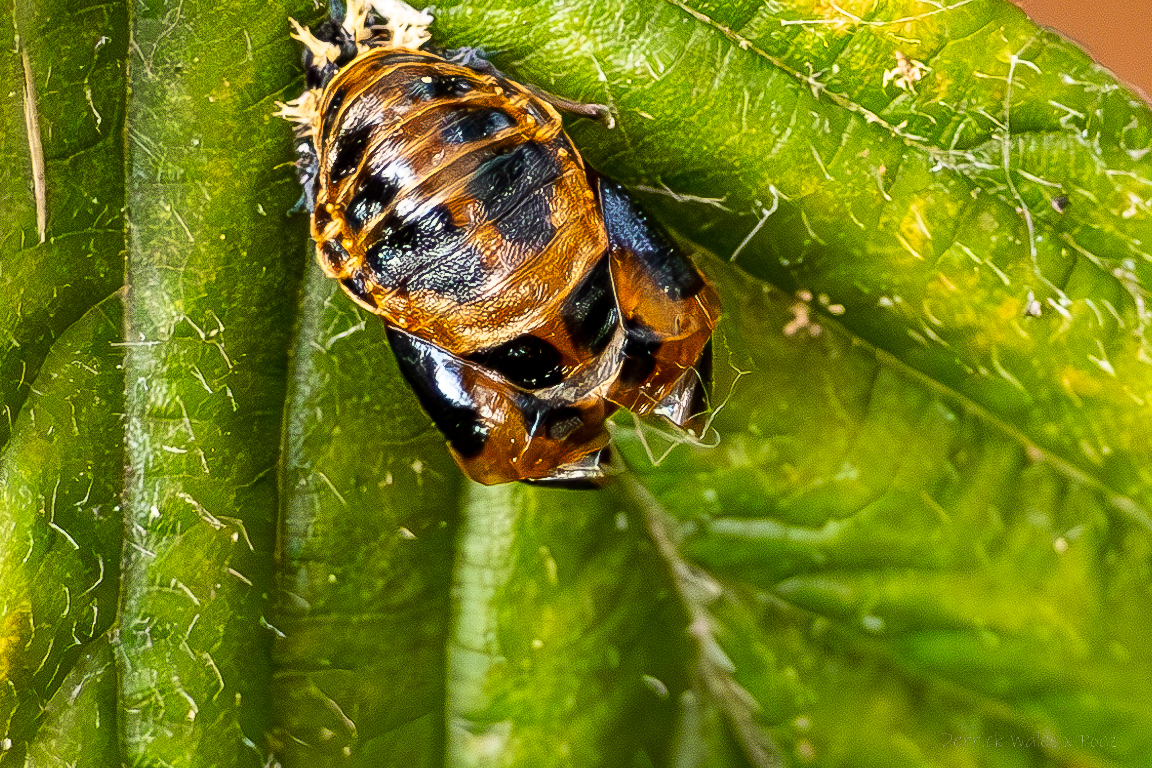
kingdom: Animalia
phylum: Arthropoda
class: Insecta
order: Coleoptera
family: Coccinellidae
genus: Harmonia
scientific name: Harmonia axyridis
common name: Harlequin ladybird
